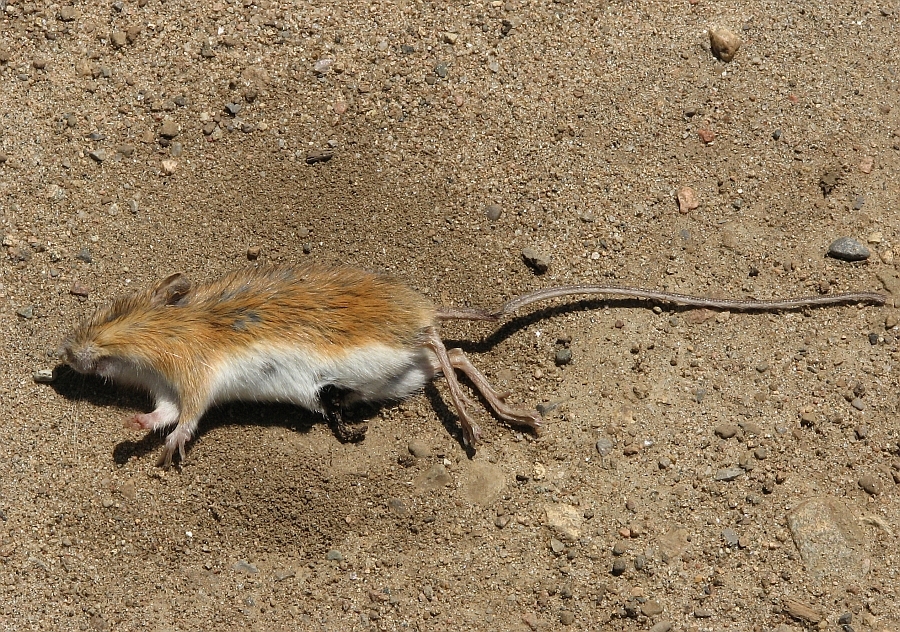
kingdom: Animalia
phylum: Chordata
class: Mammalia
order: Rodentia
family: Dipodidae
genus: Zapus
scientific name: Zapus hudsonius
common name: Meadow jumping mouse
